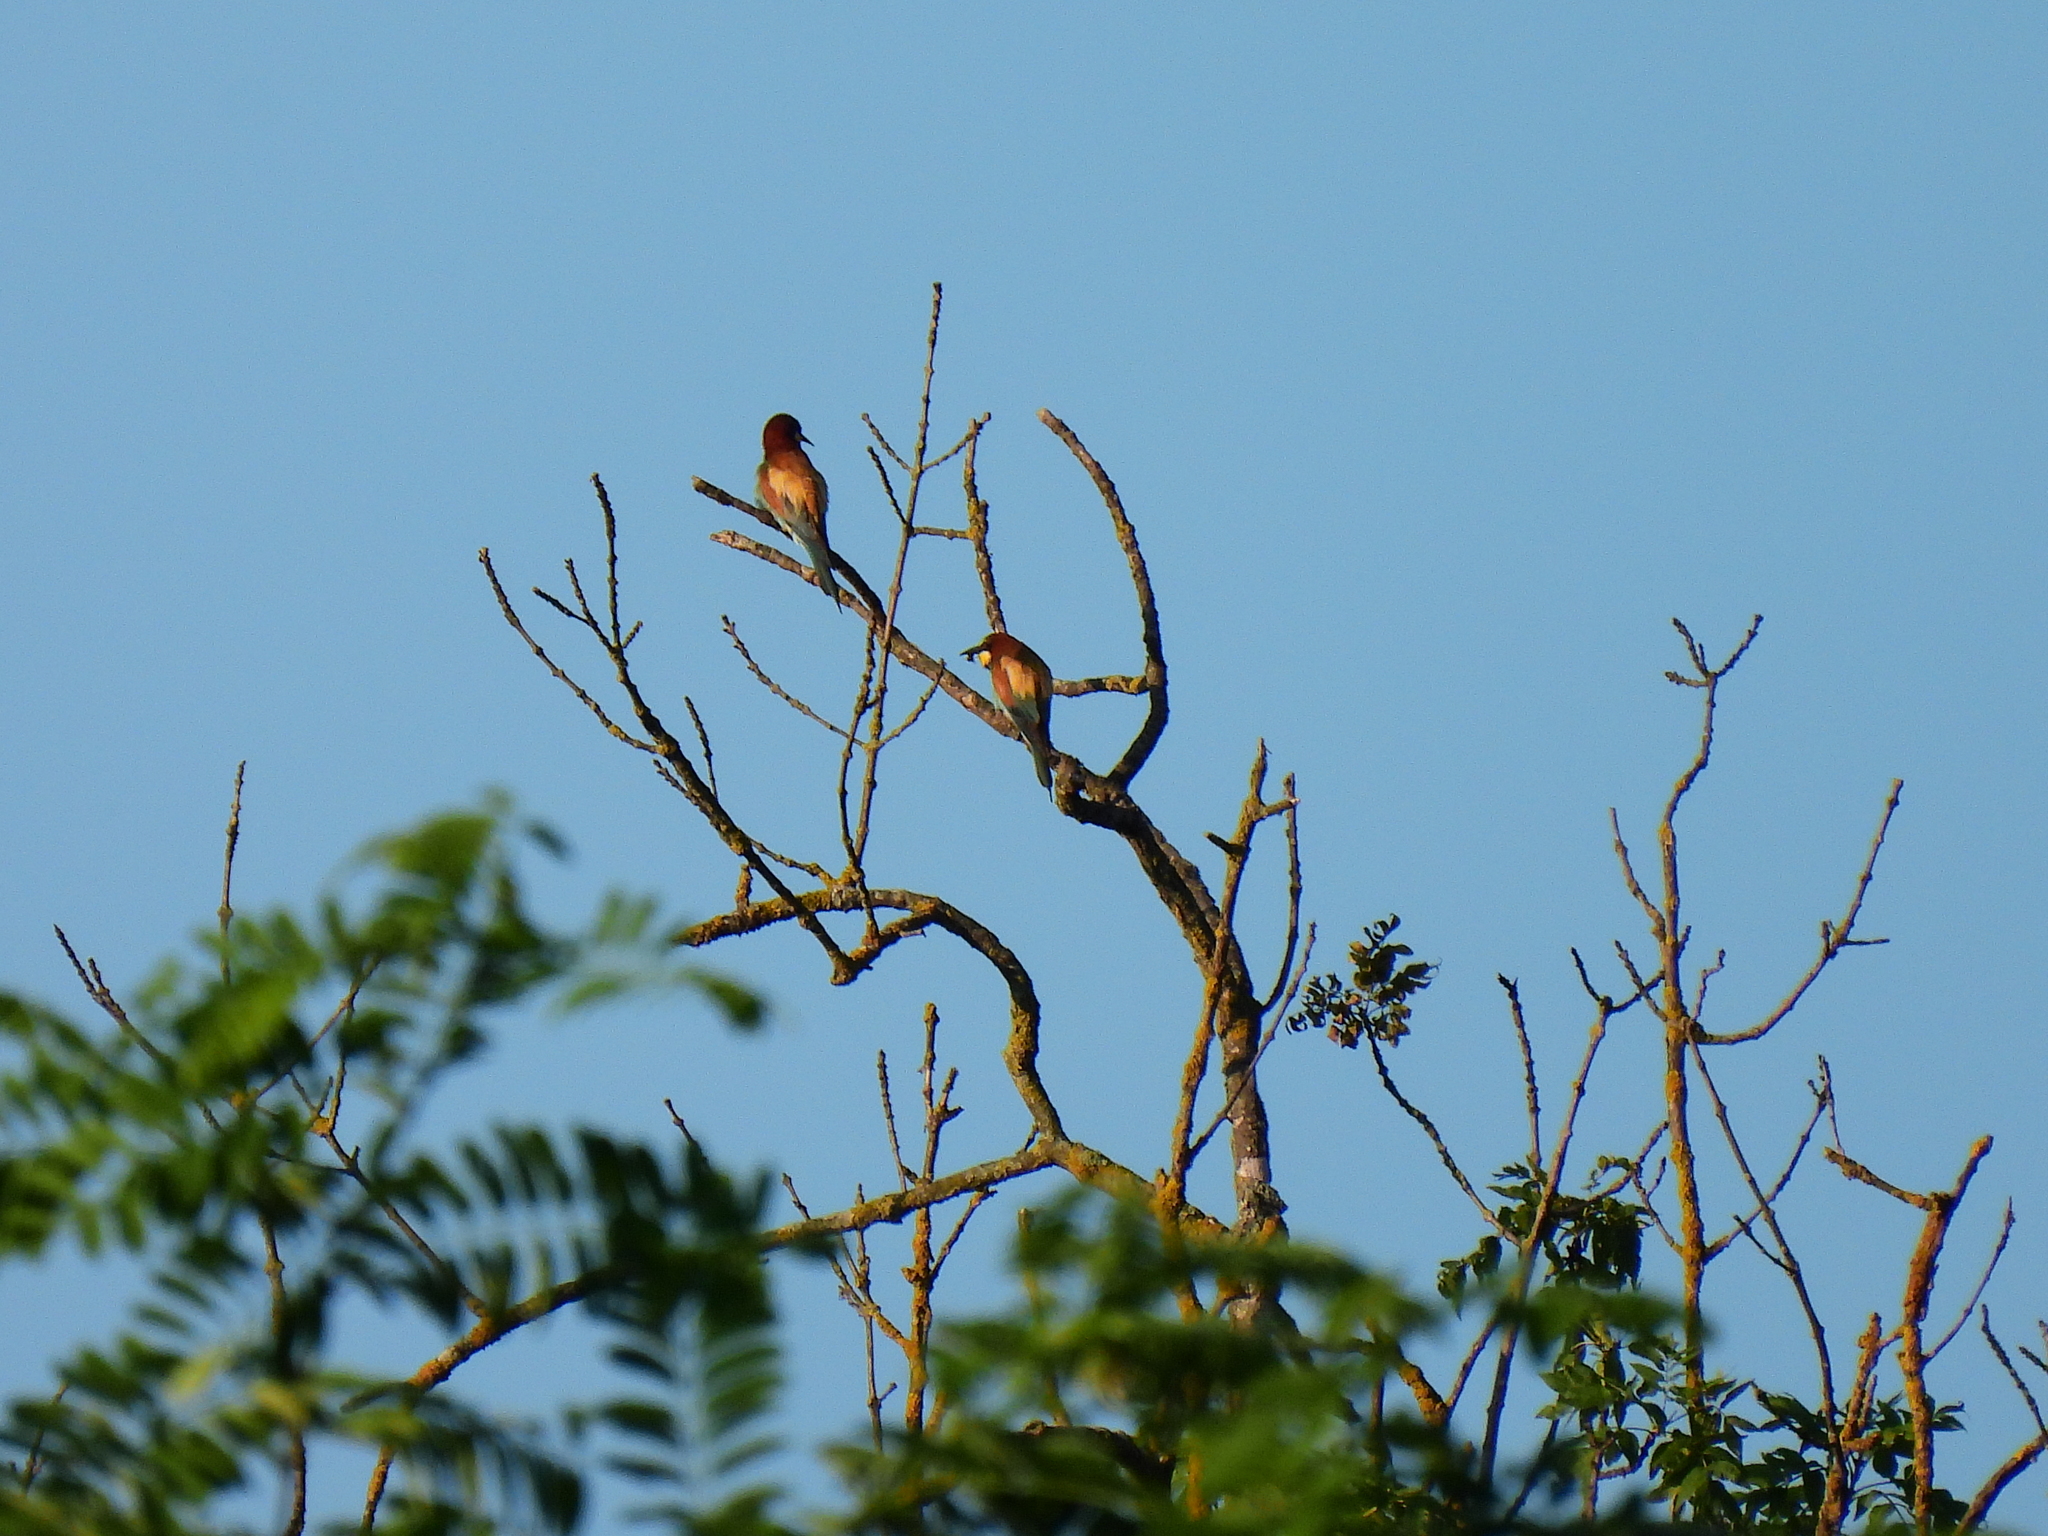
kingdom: Animalia
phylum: Chordata
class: Aves
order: Coraciiformes
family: Meropidae
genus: Merops
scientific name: Merops apiaster
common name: European bee-eater
